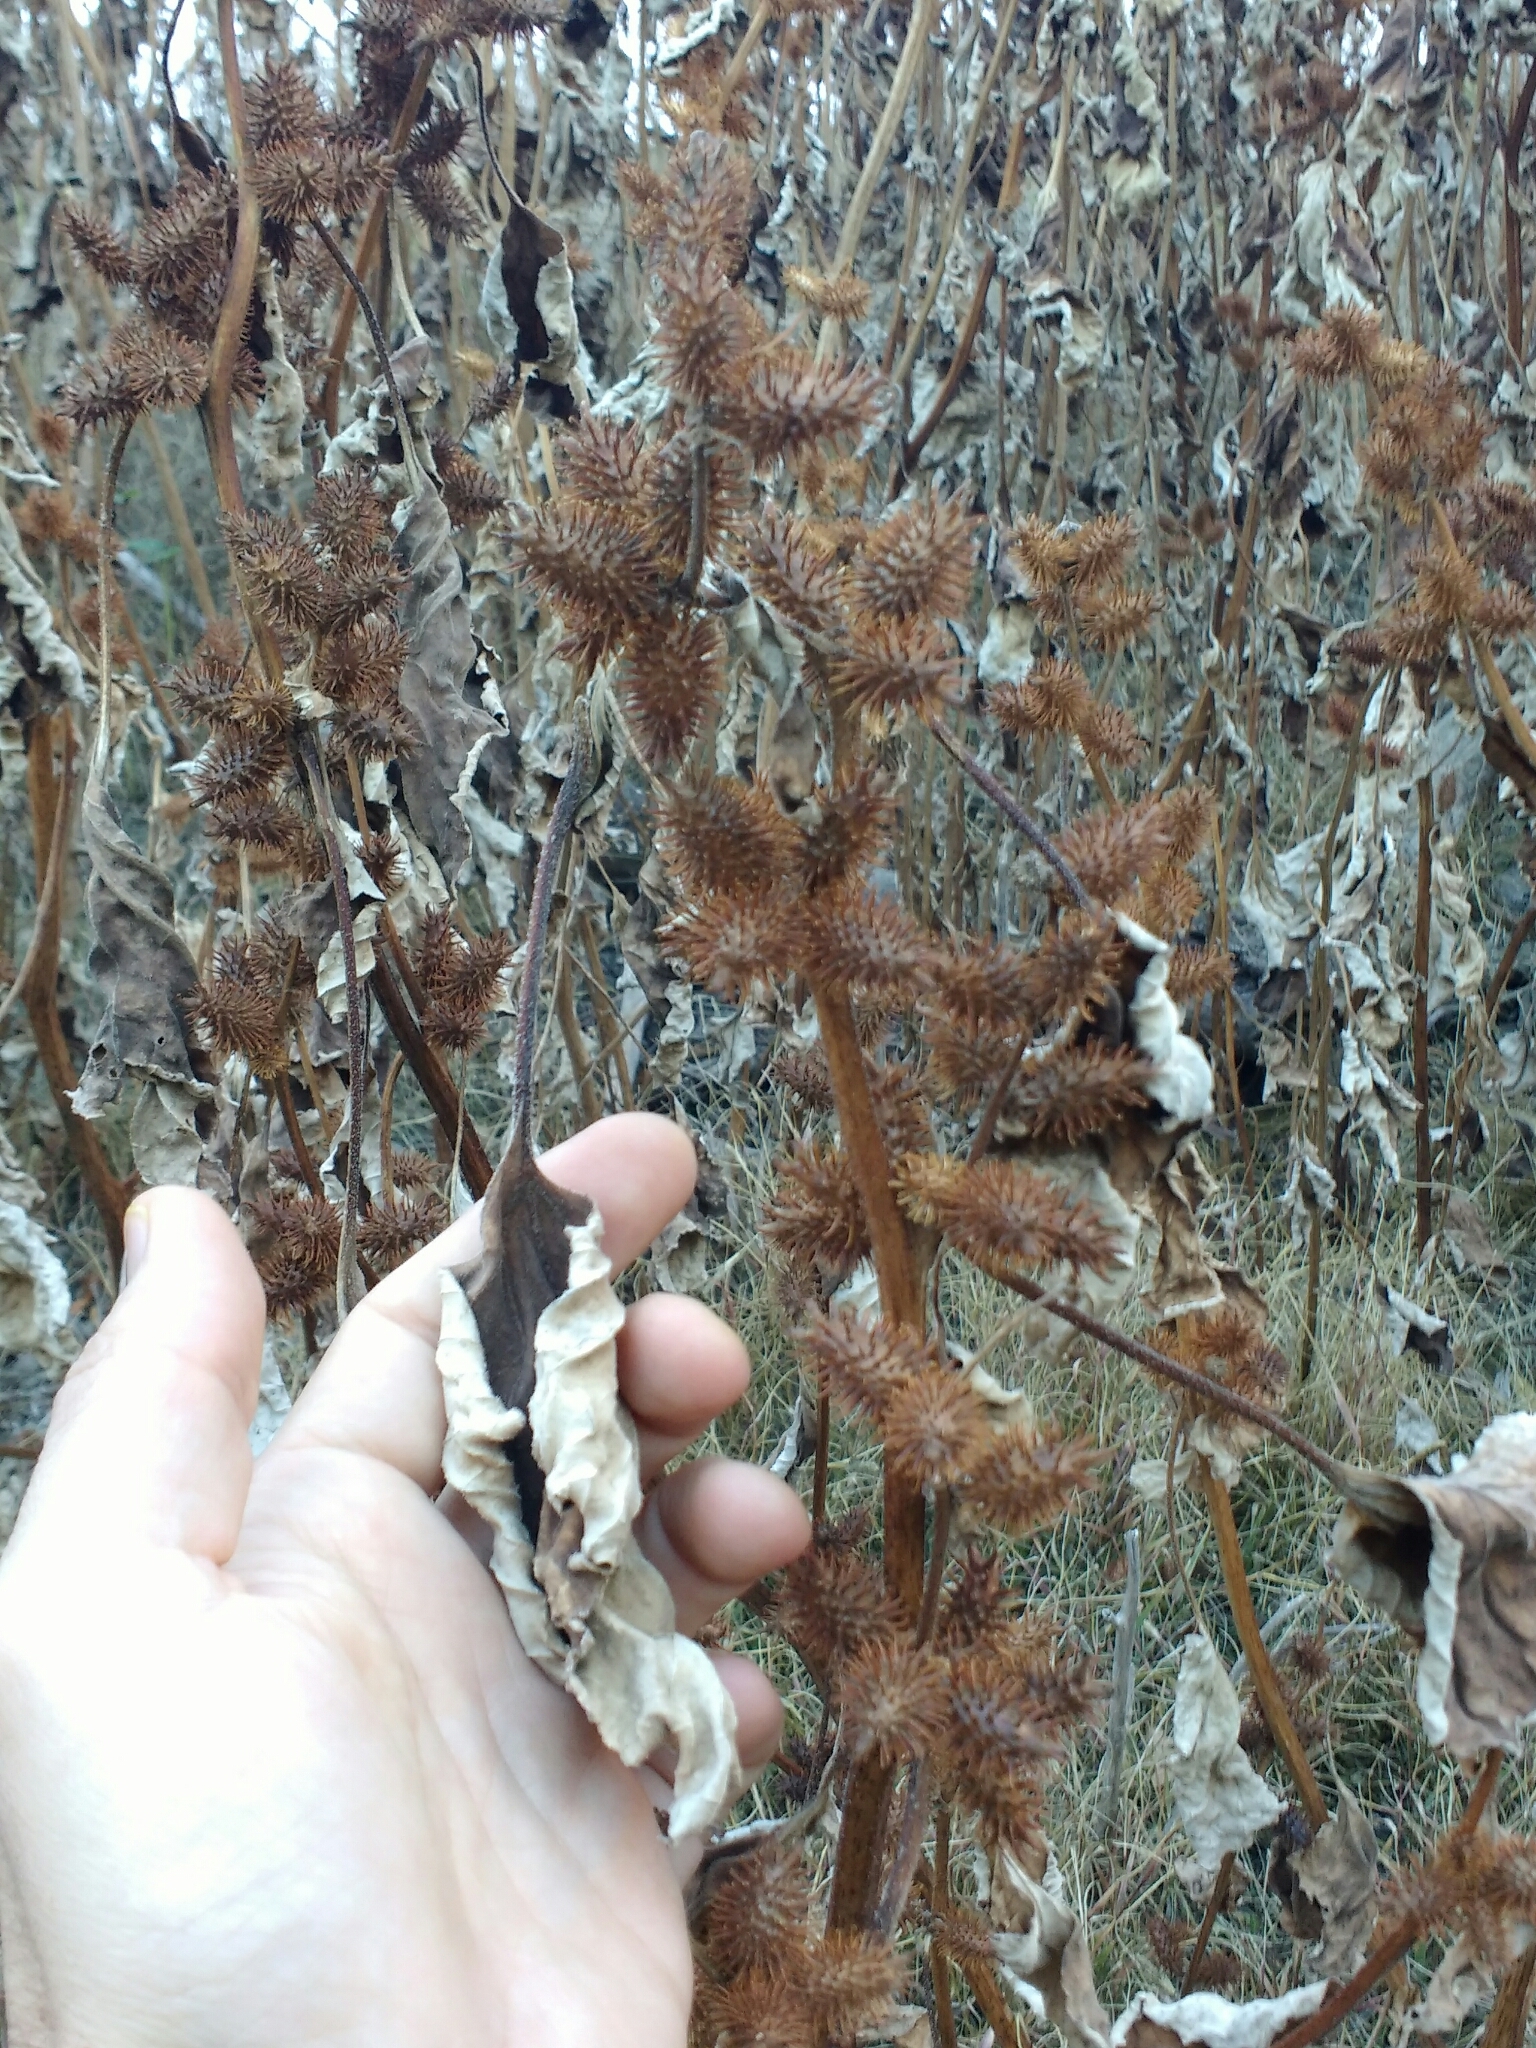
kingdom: Plantae
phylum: Tracheophyta
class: Magnoliopsida
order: Asterales
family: Asteraceae
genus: Xanthium
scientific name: Xanthium strumarium
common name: Rough cocklebur
